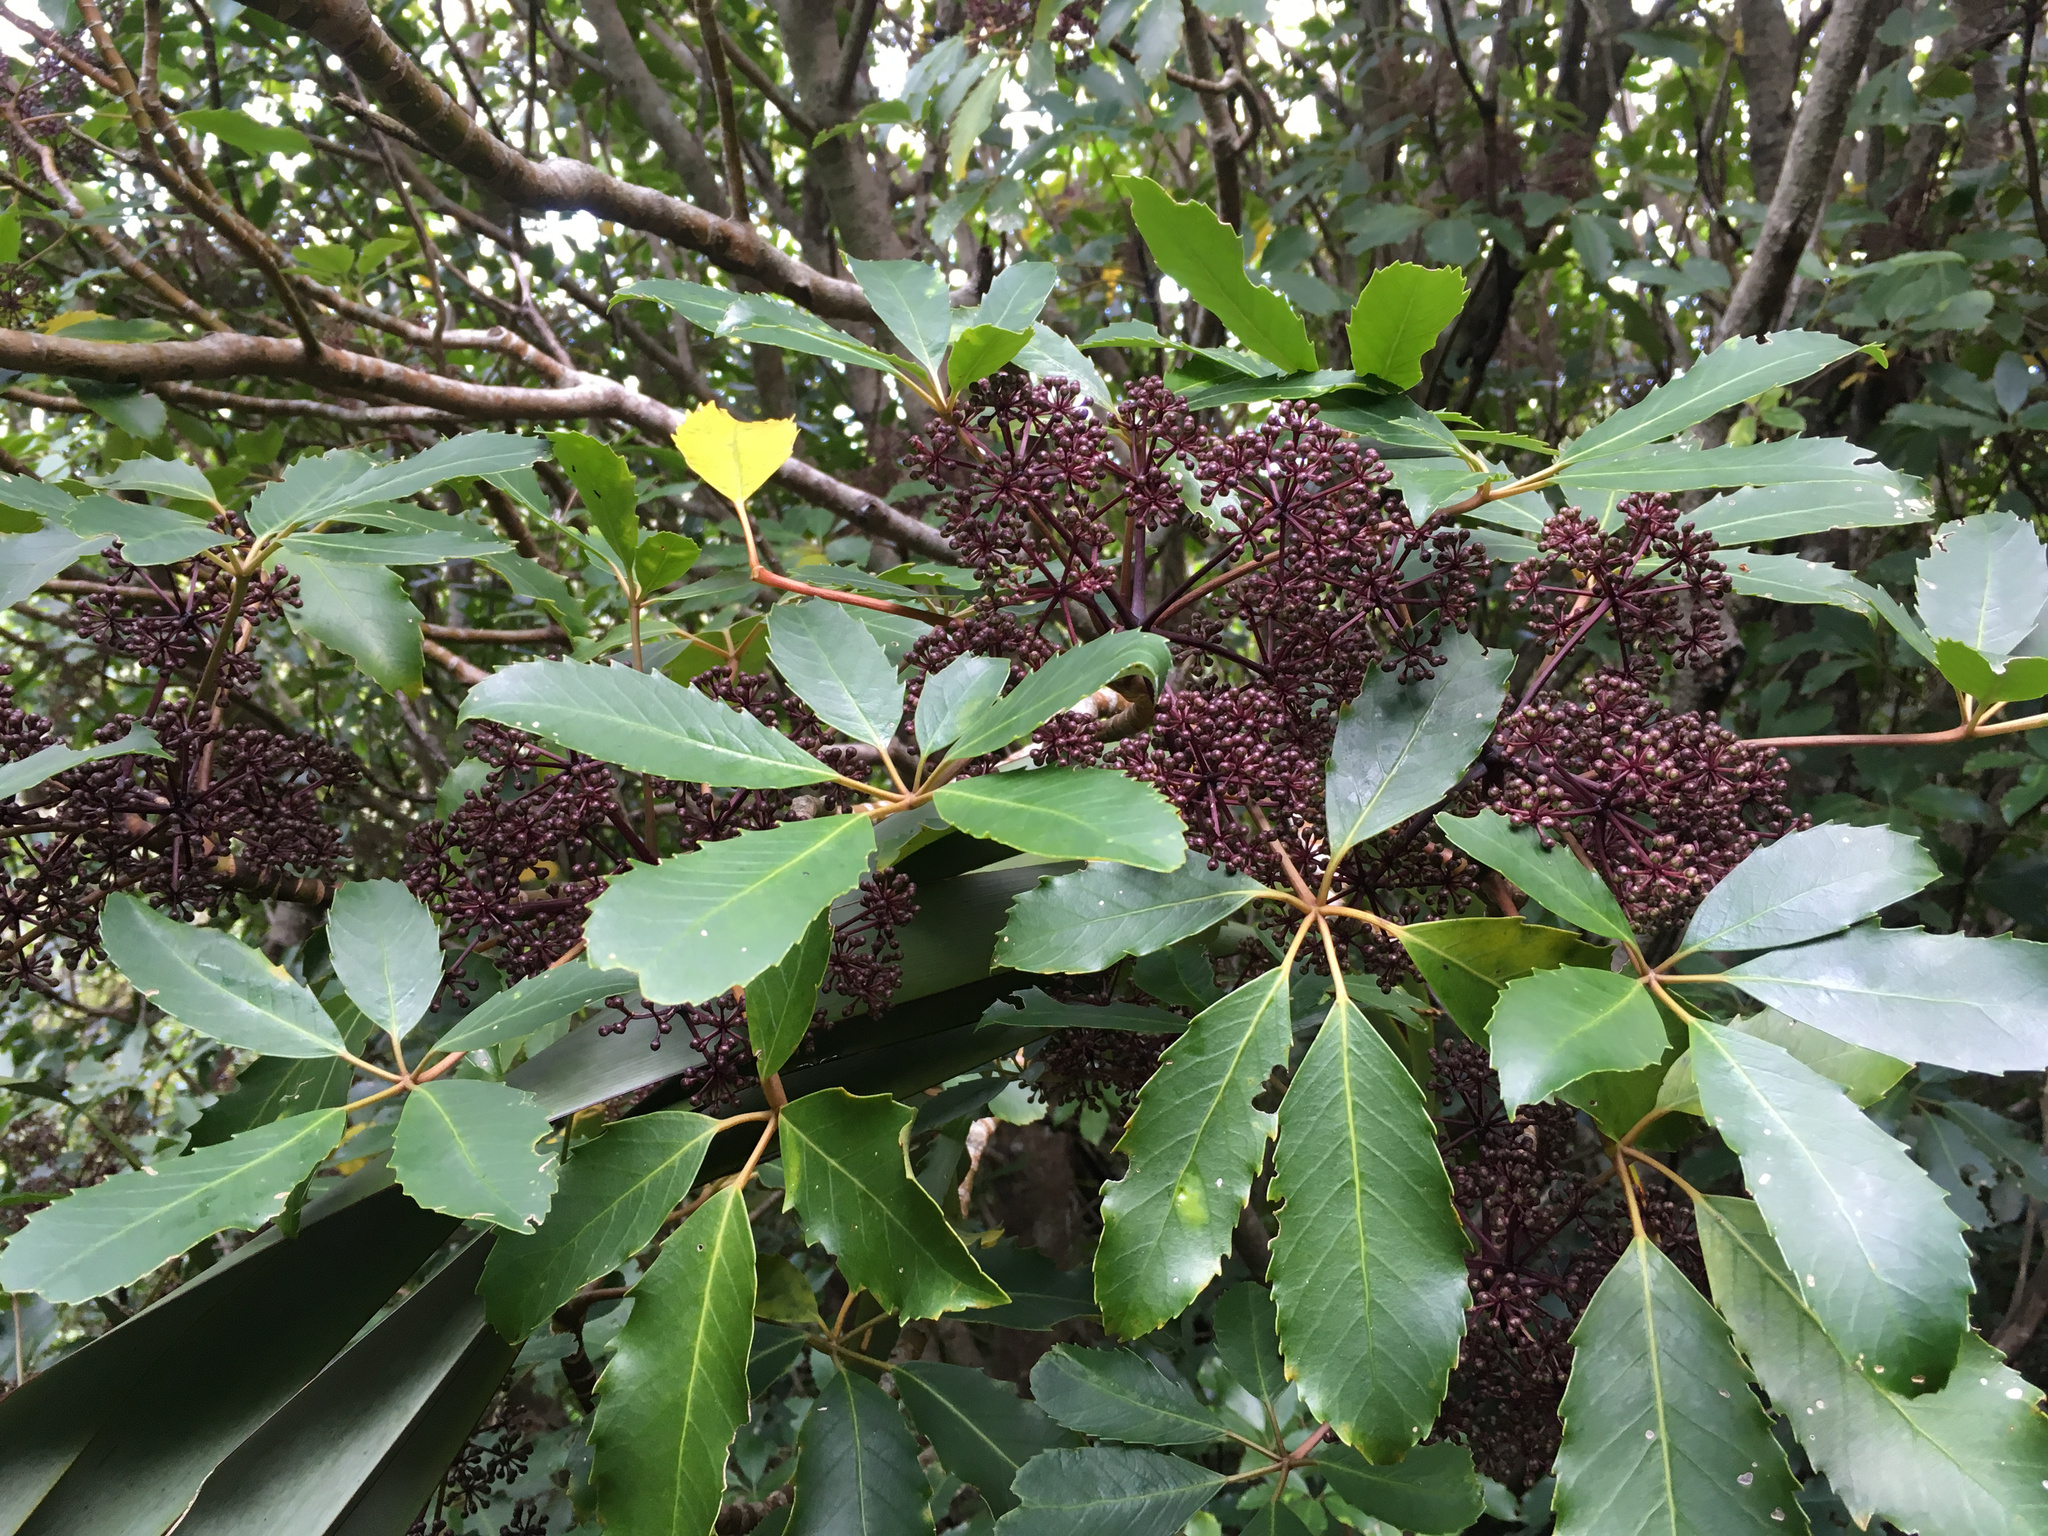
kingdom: Plantae
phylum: Tracheophyta
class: Magnoliopsida
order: Apiales
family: Araliaceae
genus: Neopanax
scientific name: Neopanax arboreus
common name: Five-fingers
